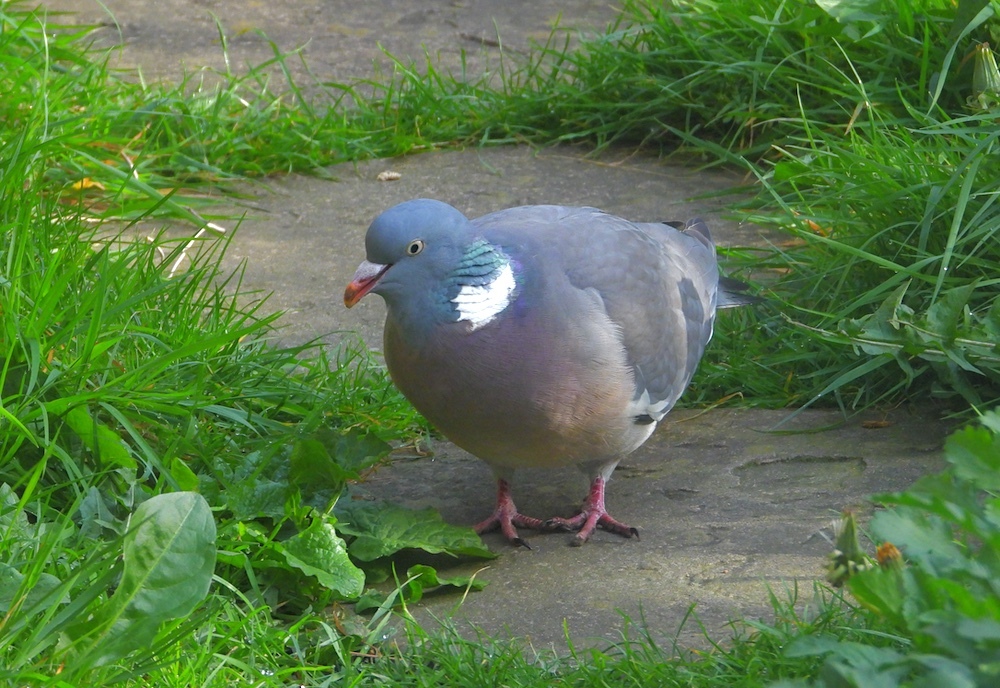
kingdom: Animalia
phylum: Chordata
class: Aves
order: Columbiformes
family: Columbidae
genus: Columba
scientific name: Columba palumbus
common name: Common wood pigeon
